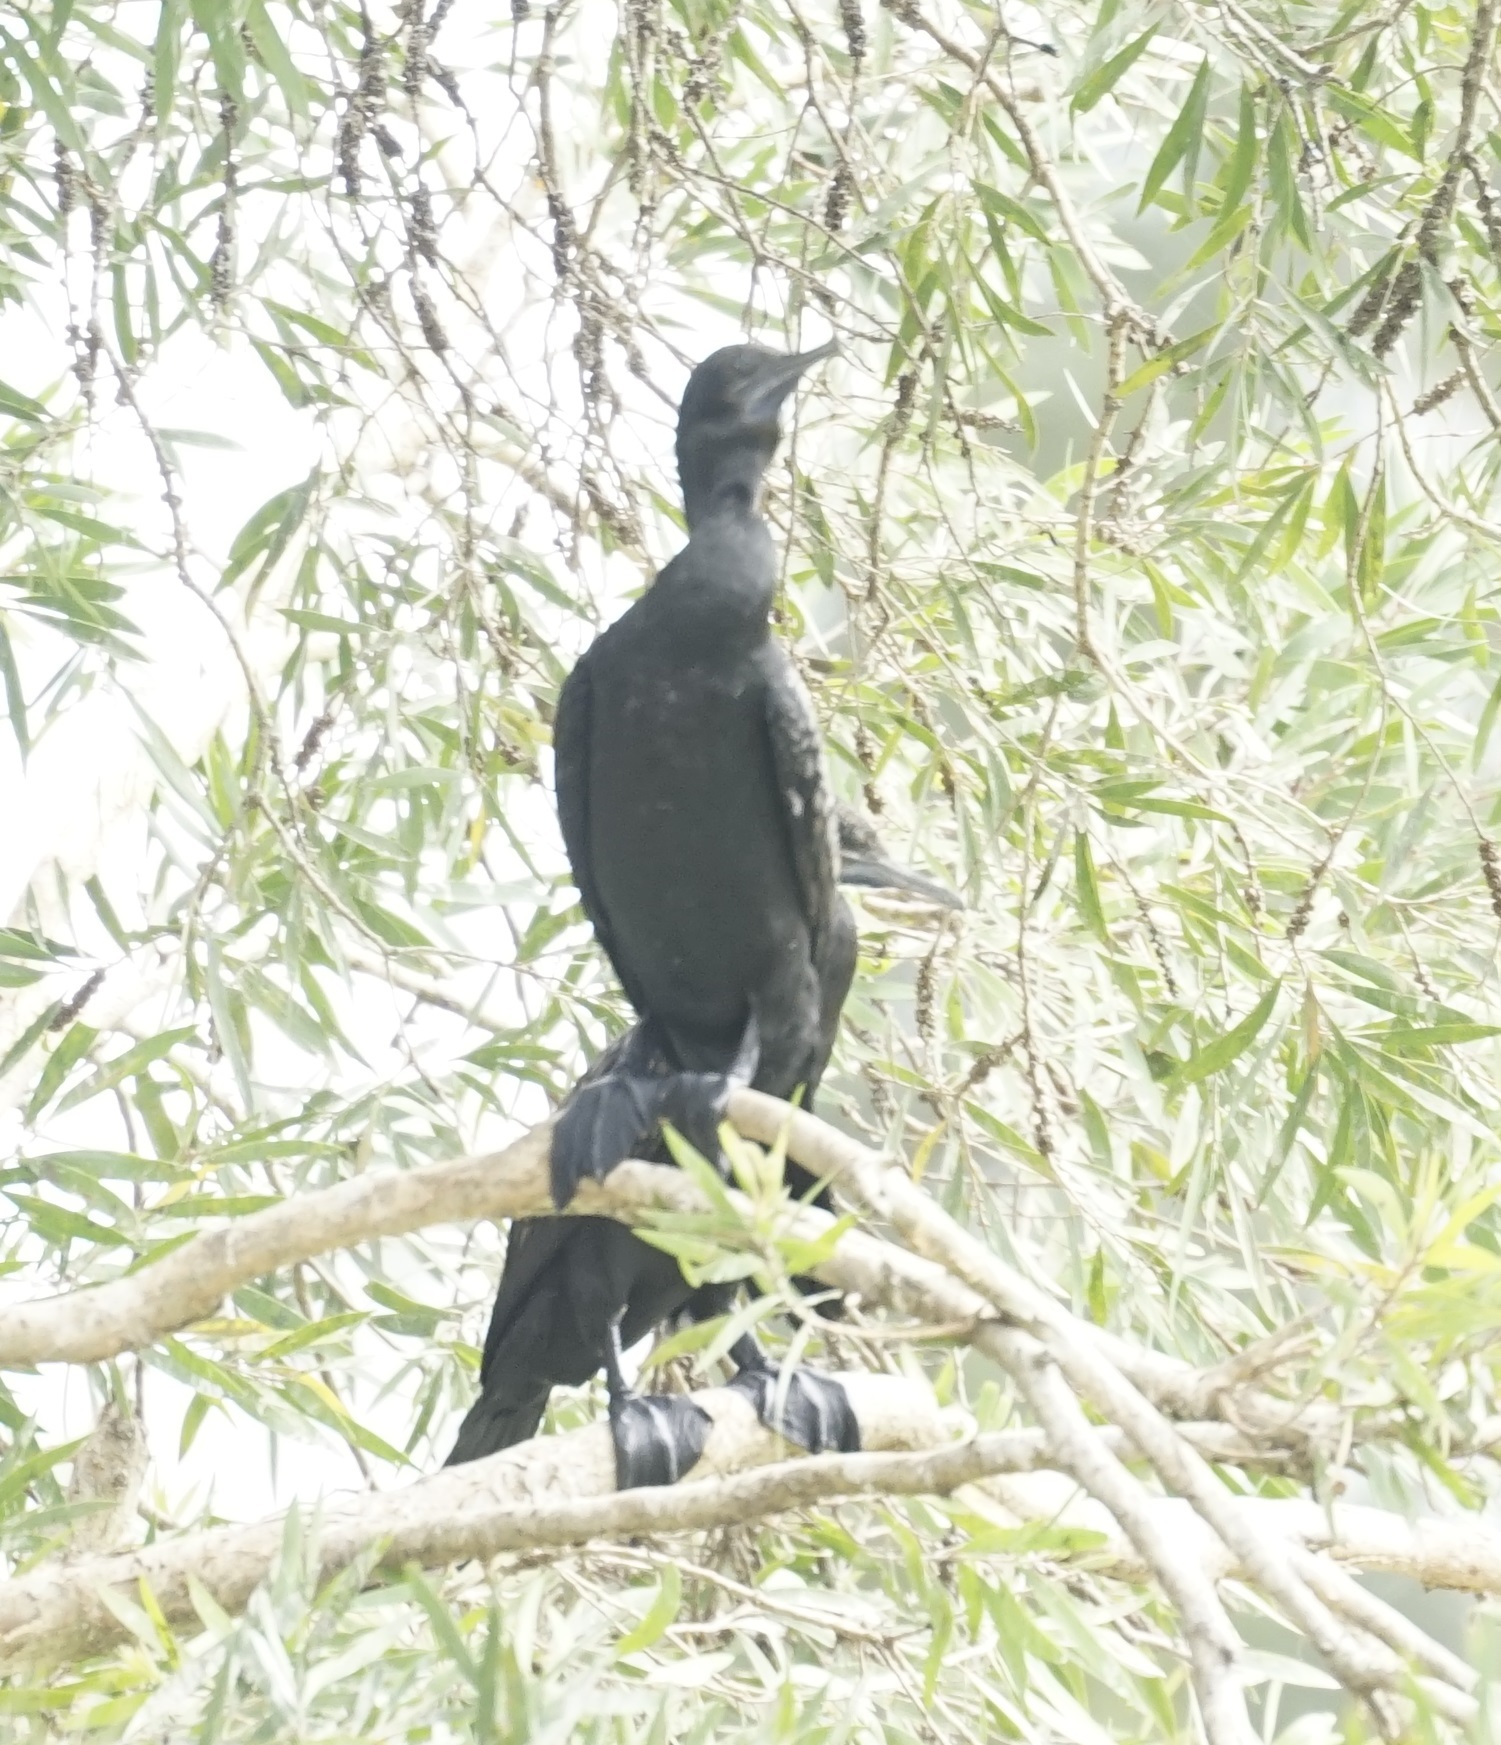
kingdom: Animalia
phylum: Chordata
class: Aves
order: Suliformes
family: Phalacrocoracidae
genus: Phalacrocorax
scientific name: Phalacrocorax sulcirostris
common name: Little black cormorant
